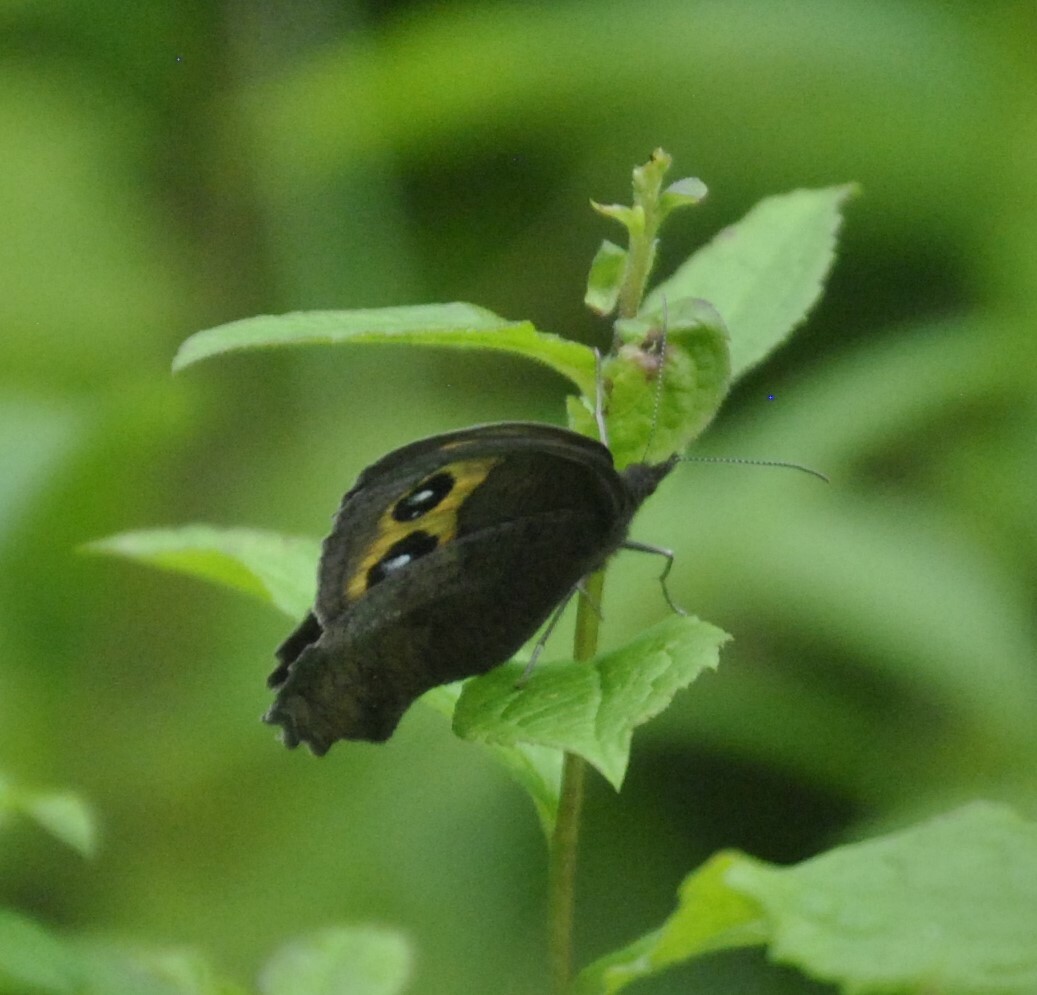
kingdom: Animalia
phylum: Arthropoda
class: Insecta
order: Lepidoptera
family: Nymphalidae
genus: Cercyonis
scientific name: Cercyonis pegala
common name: Common wood-nymph
